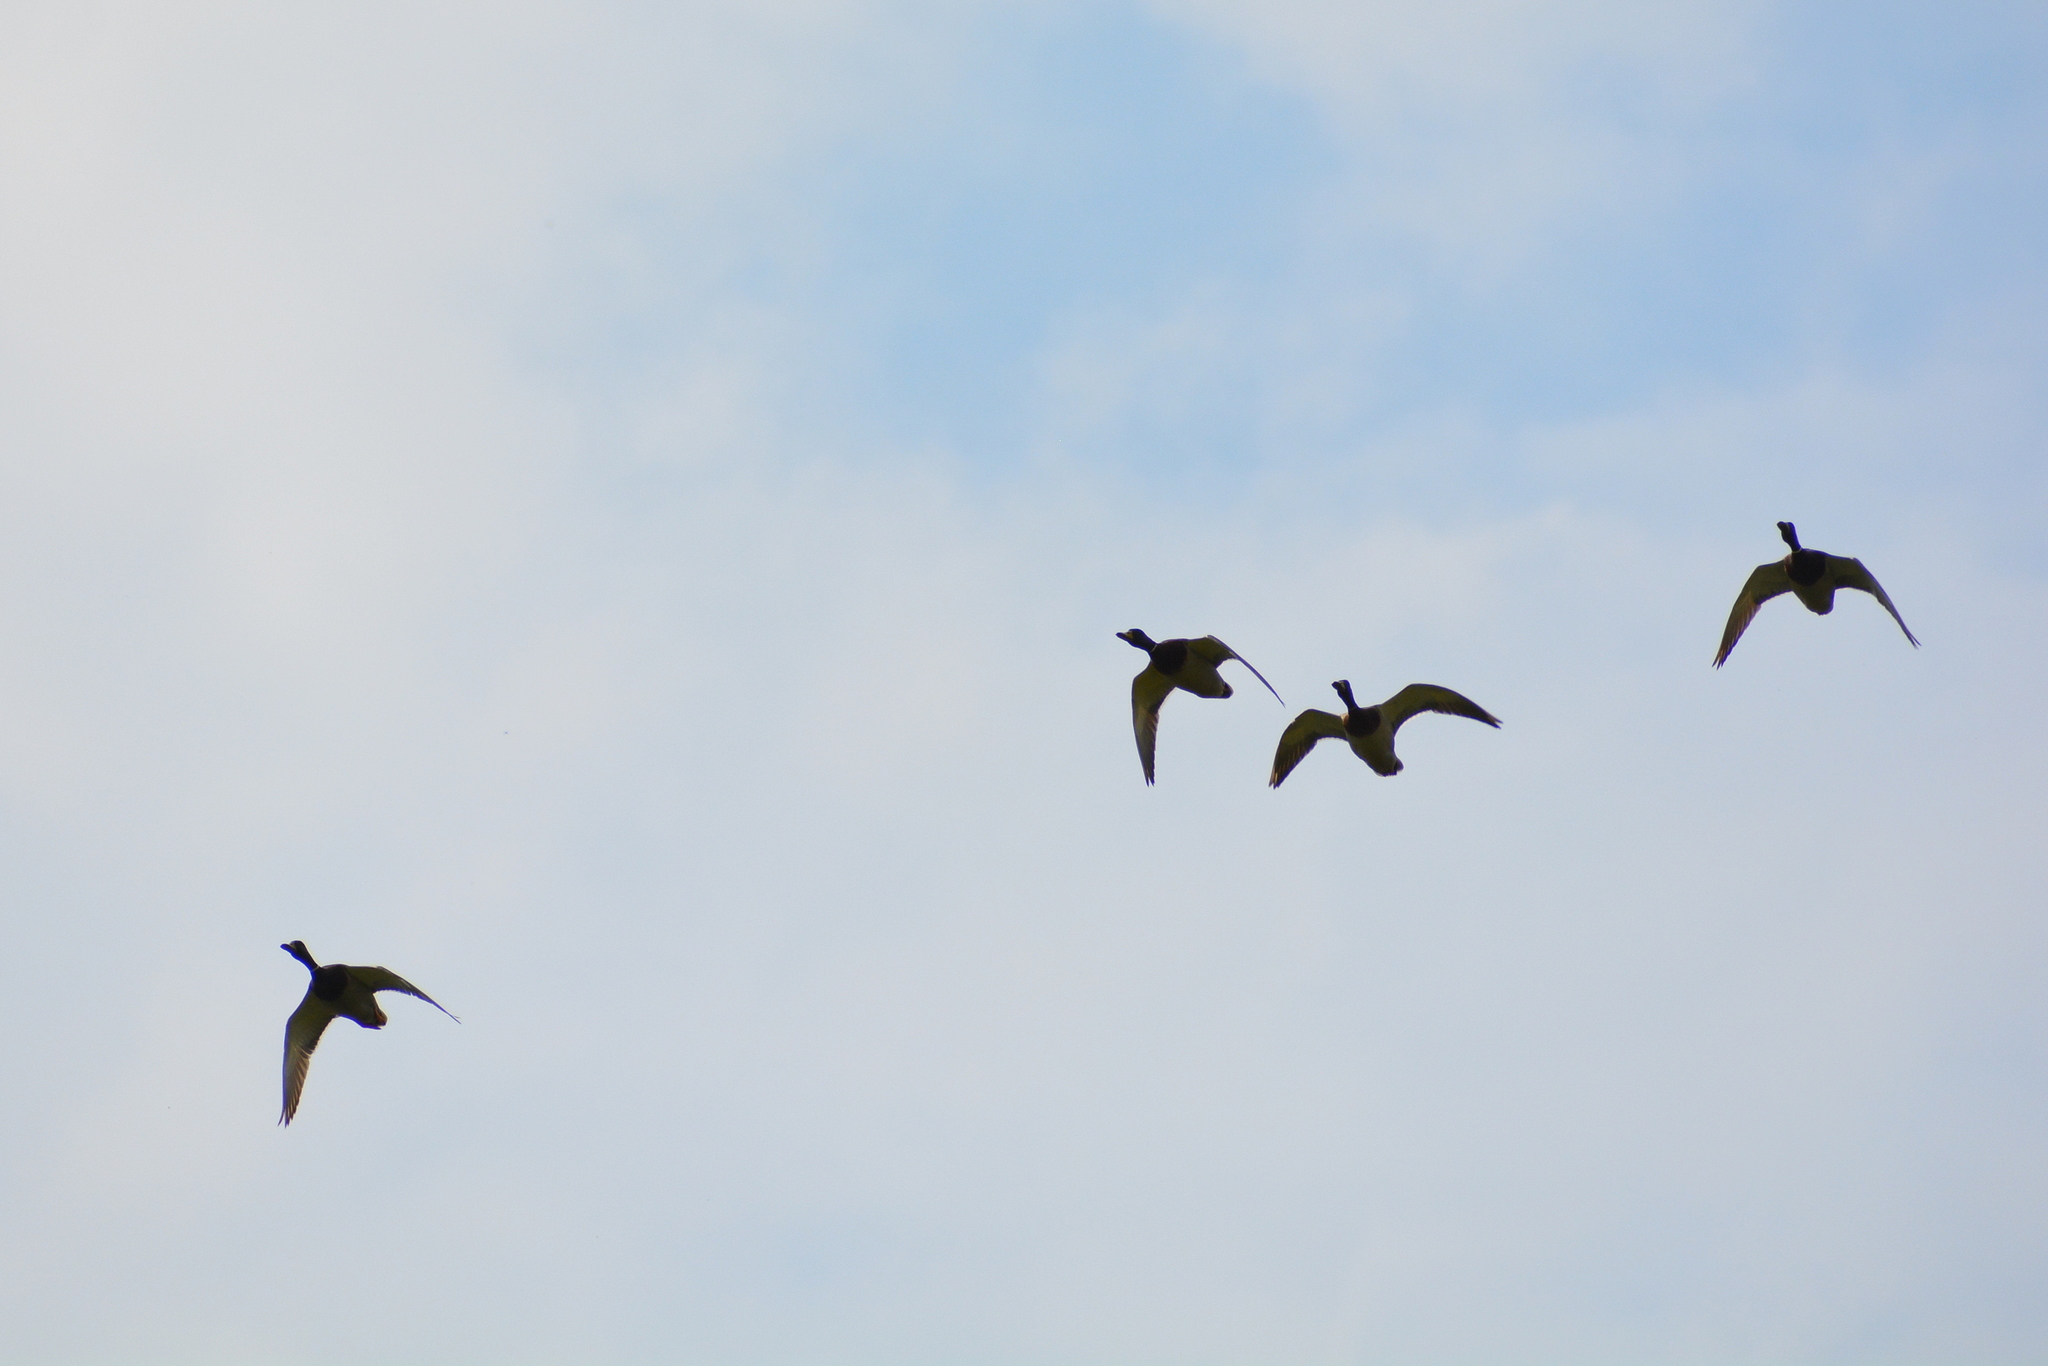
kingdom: Animalia
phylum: Chordata
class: Aves
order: Anseriformes
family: Anatidae
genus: Anas
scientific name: Anas platyrhynchos
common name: Mallard
